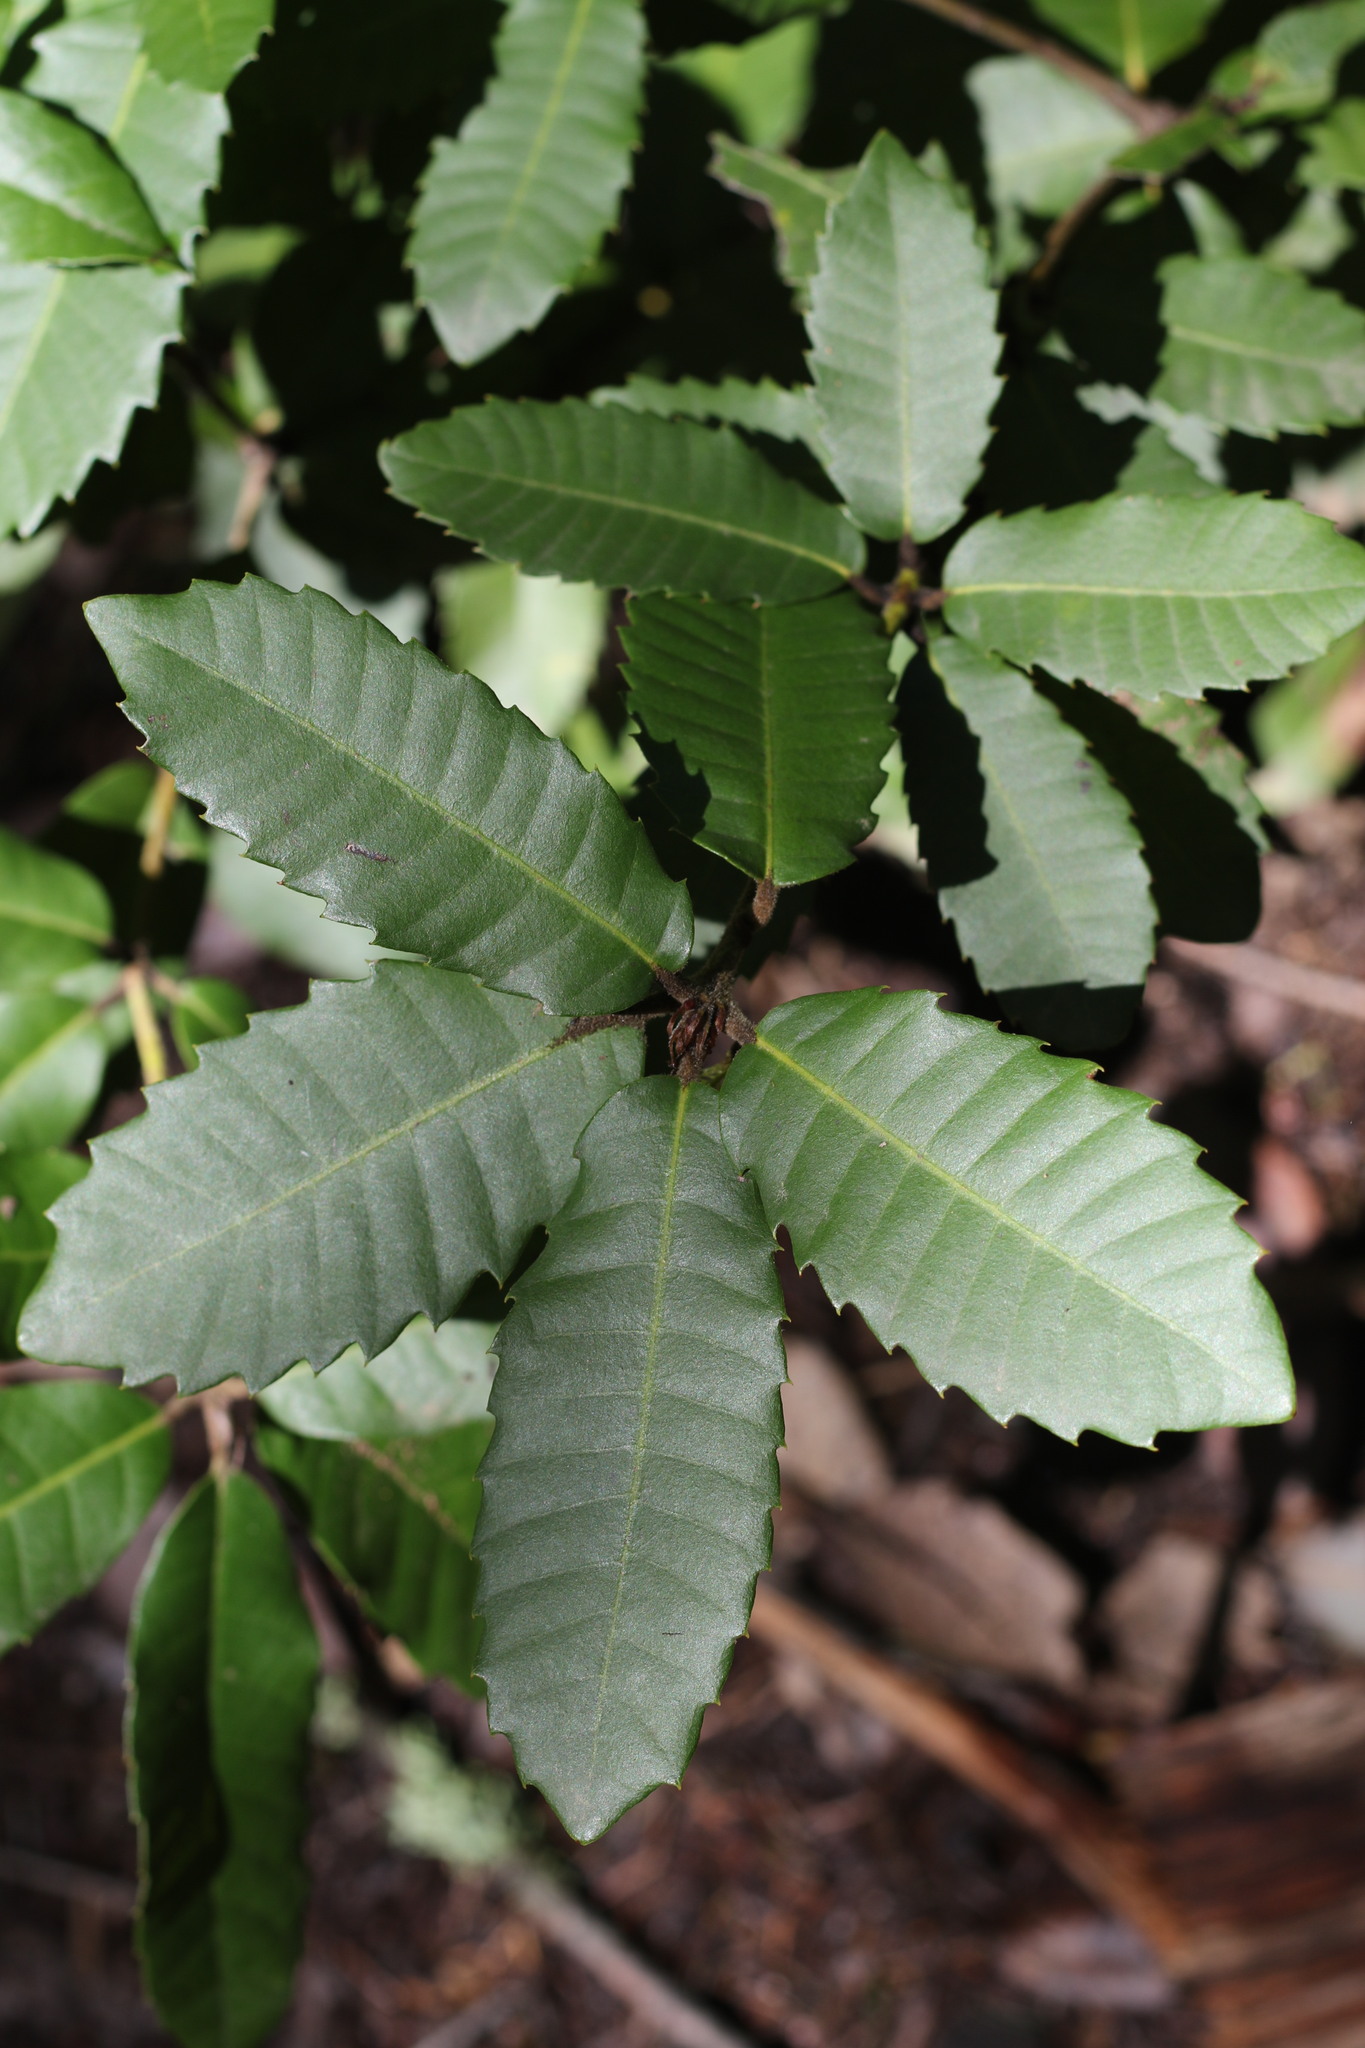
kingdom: Plantae
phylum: Tracheophyta
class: Magnoliopsida
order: Fagales
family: Fagaceae
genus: Notholithocarpus
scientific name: Notholithocarpus densiflorus
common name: Tan bark oak
